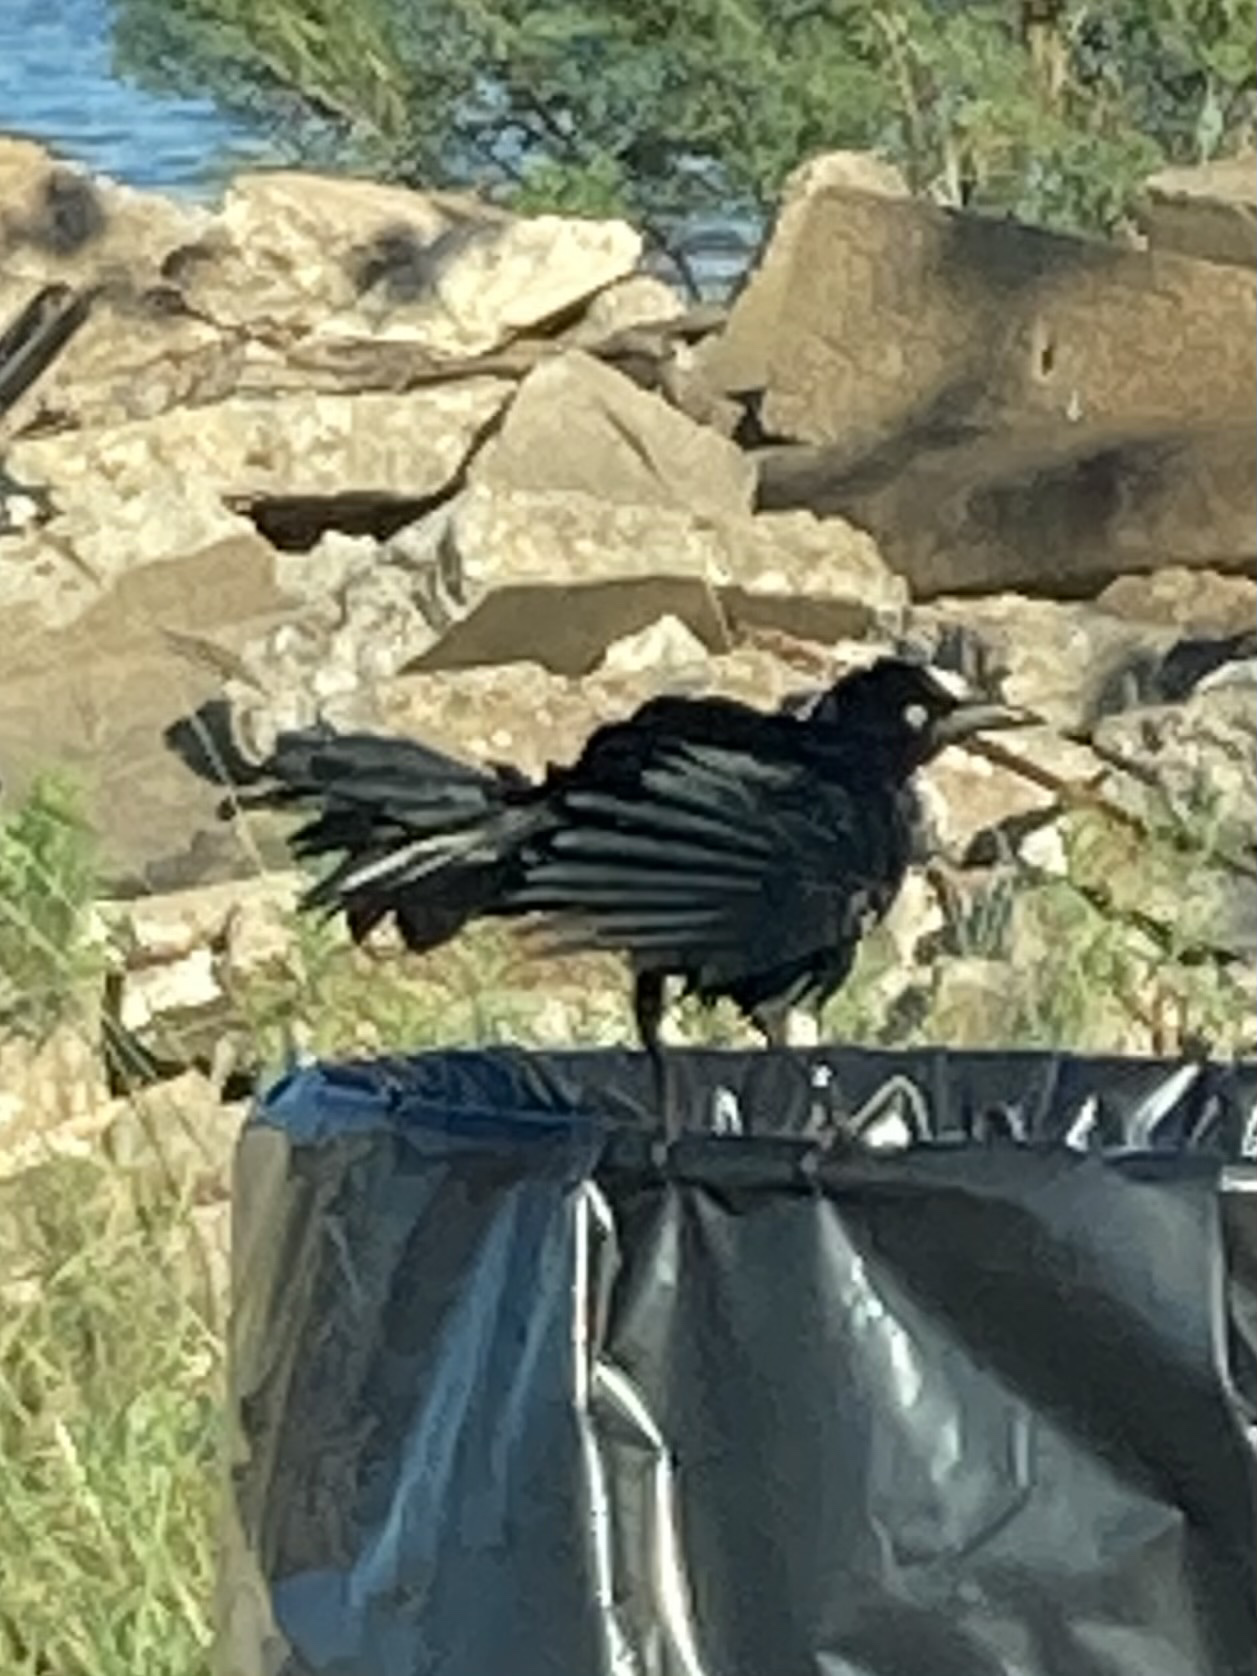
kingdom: Animalia
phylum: Chordata
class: Aves
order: Passeriformes
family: Icteridae
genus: Quiscalus
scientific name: Quiscalus mexicanus
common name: Great-tailed grackle
